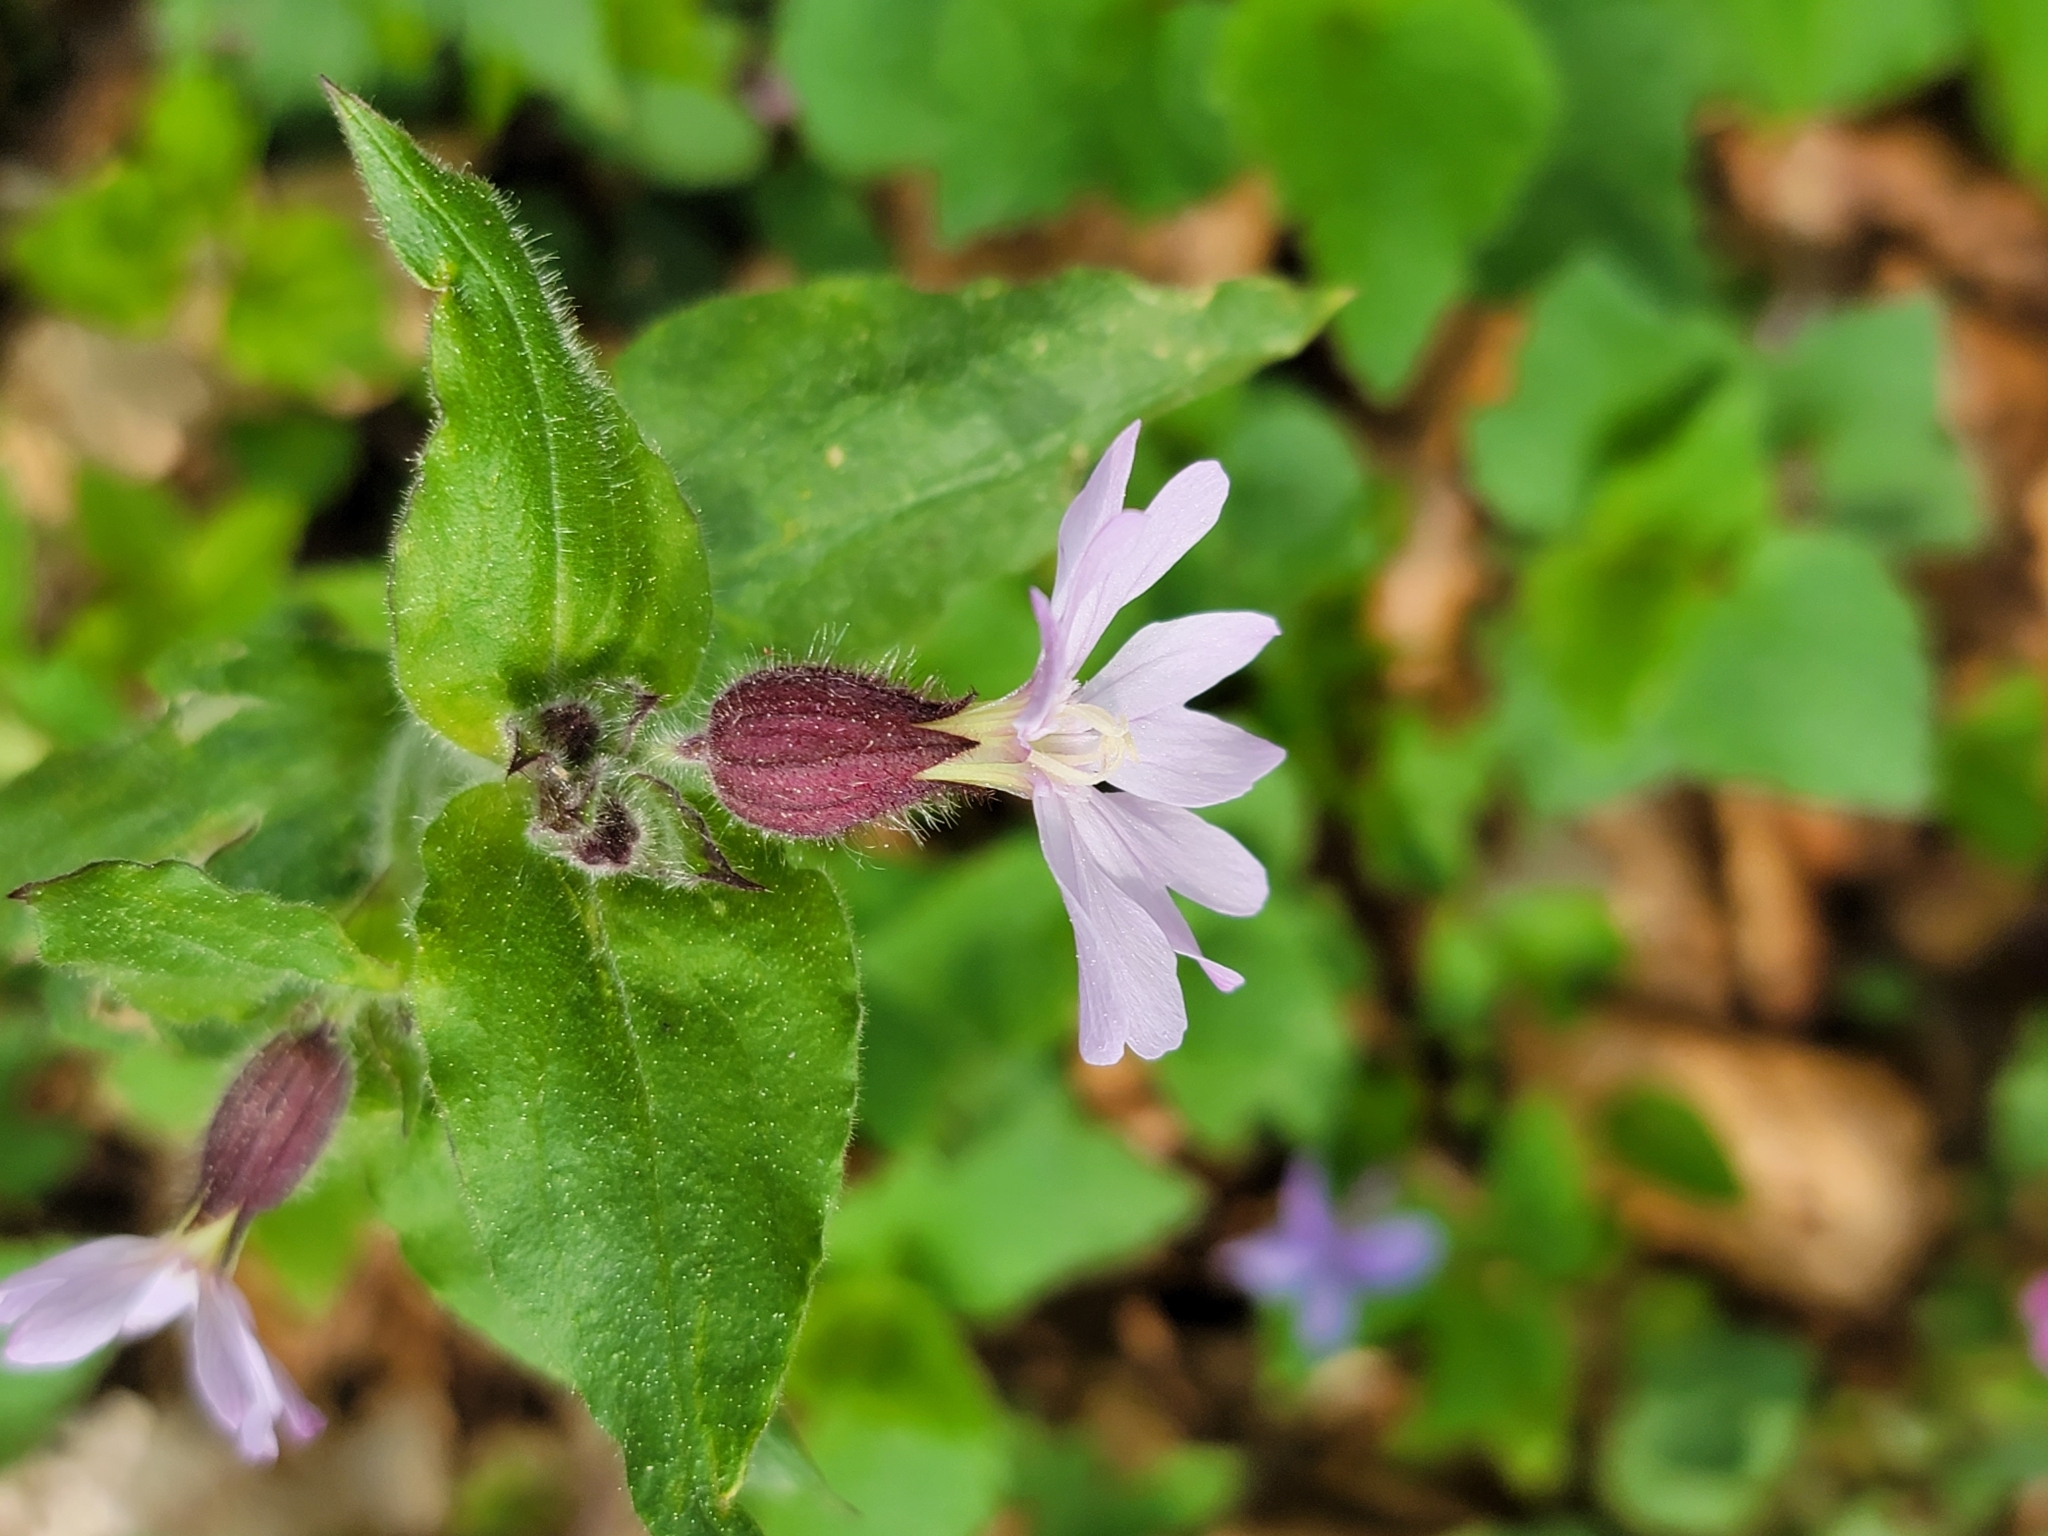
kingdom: Plantae
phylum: Tracheophyta
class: Magnoliopsida
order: Caryophyllales
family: Caryophyllaceae
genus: Silene
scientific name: Silene dioica
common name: Red campion
